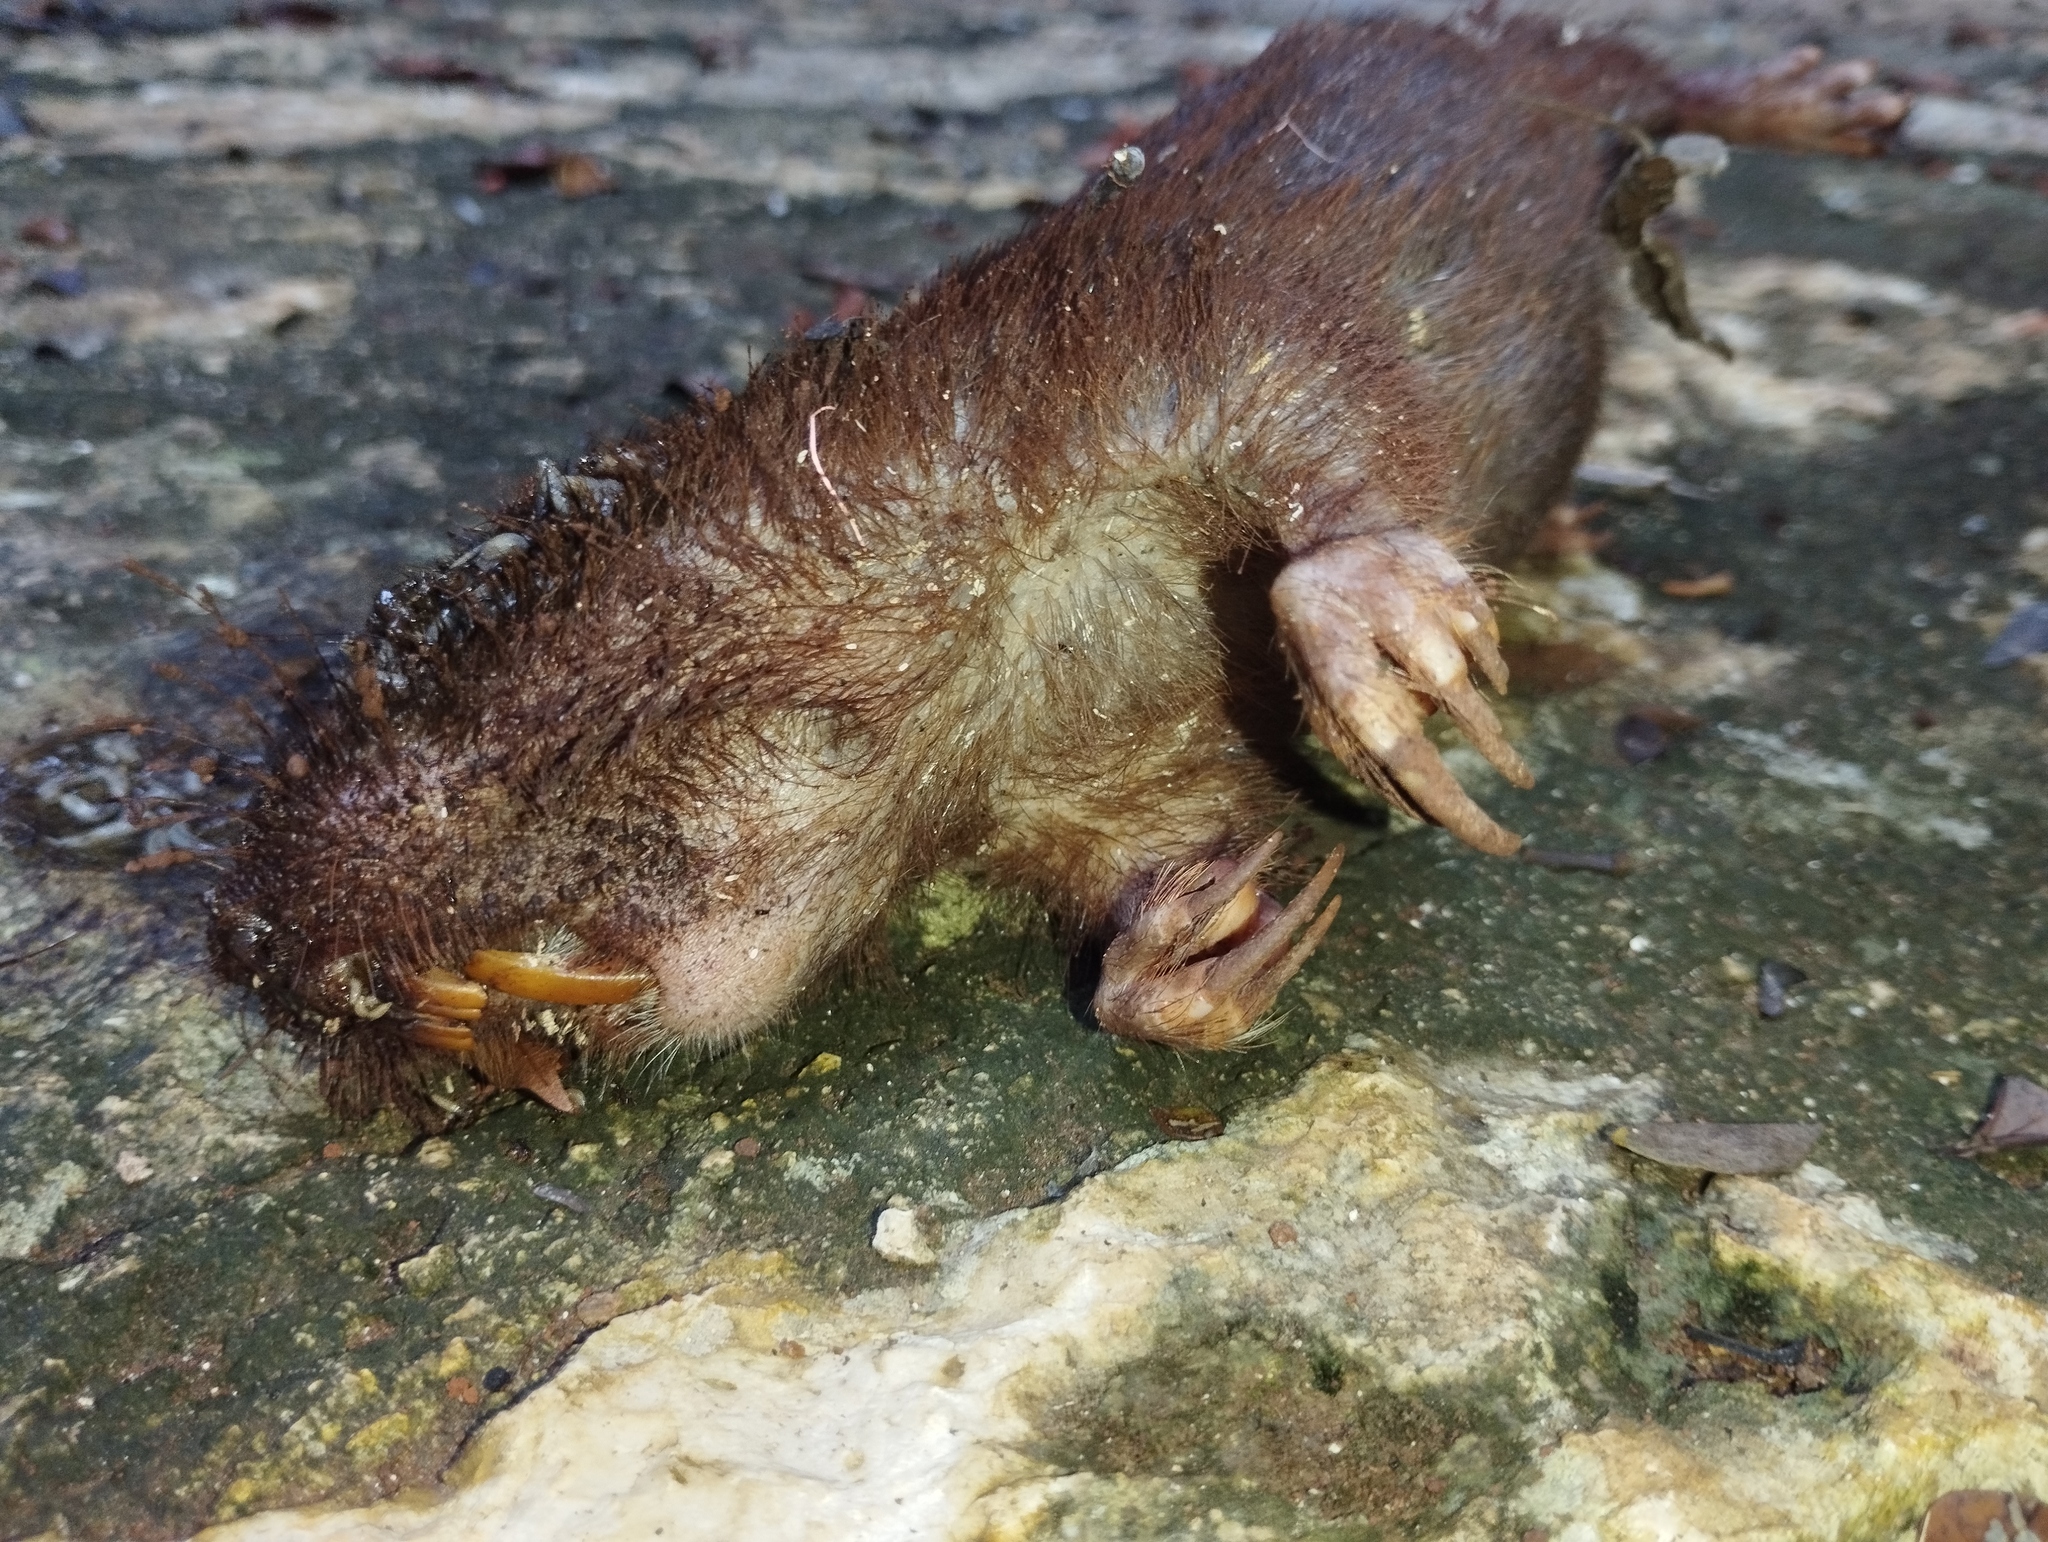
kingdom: Animalia
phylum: Chordata
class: Mammalia
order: Rodentia
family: Geomyidae
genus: Orthogeomys
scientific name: Orthogeomys hispidus
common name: Hispid pocket gopher
